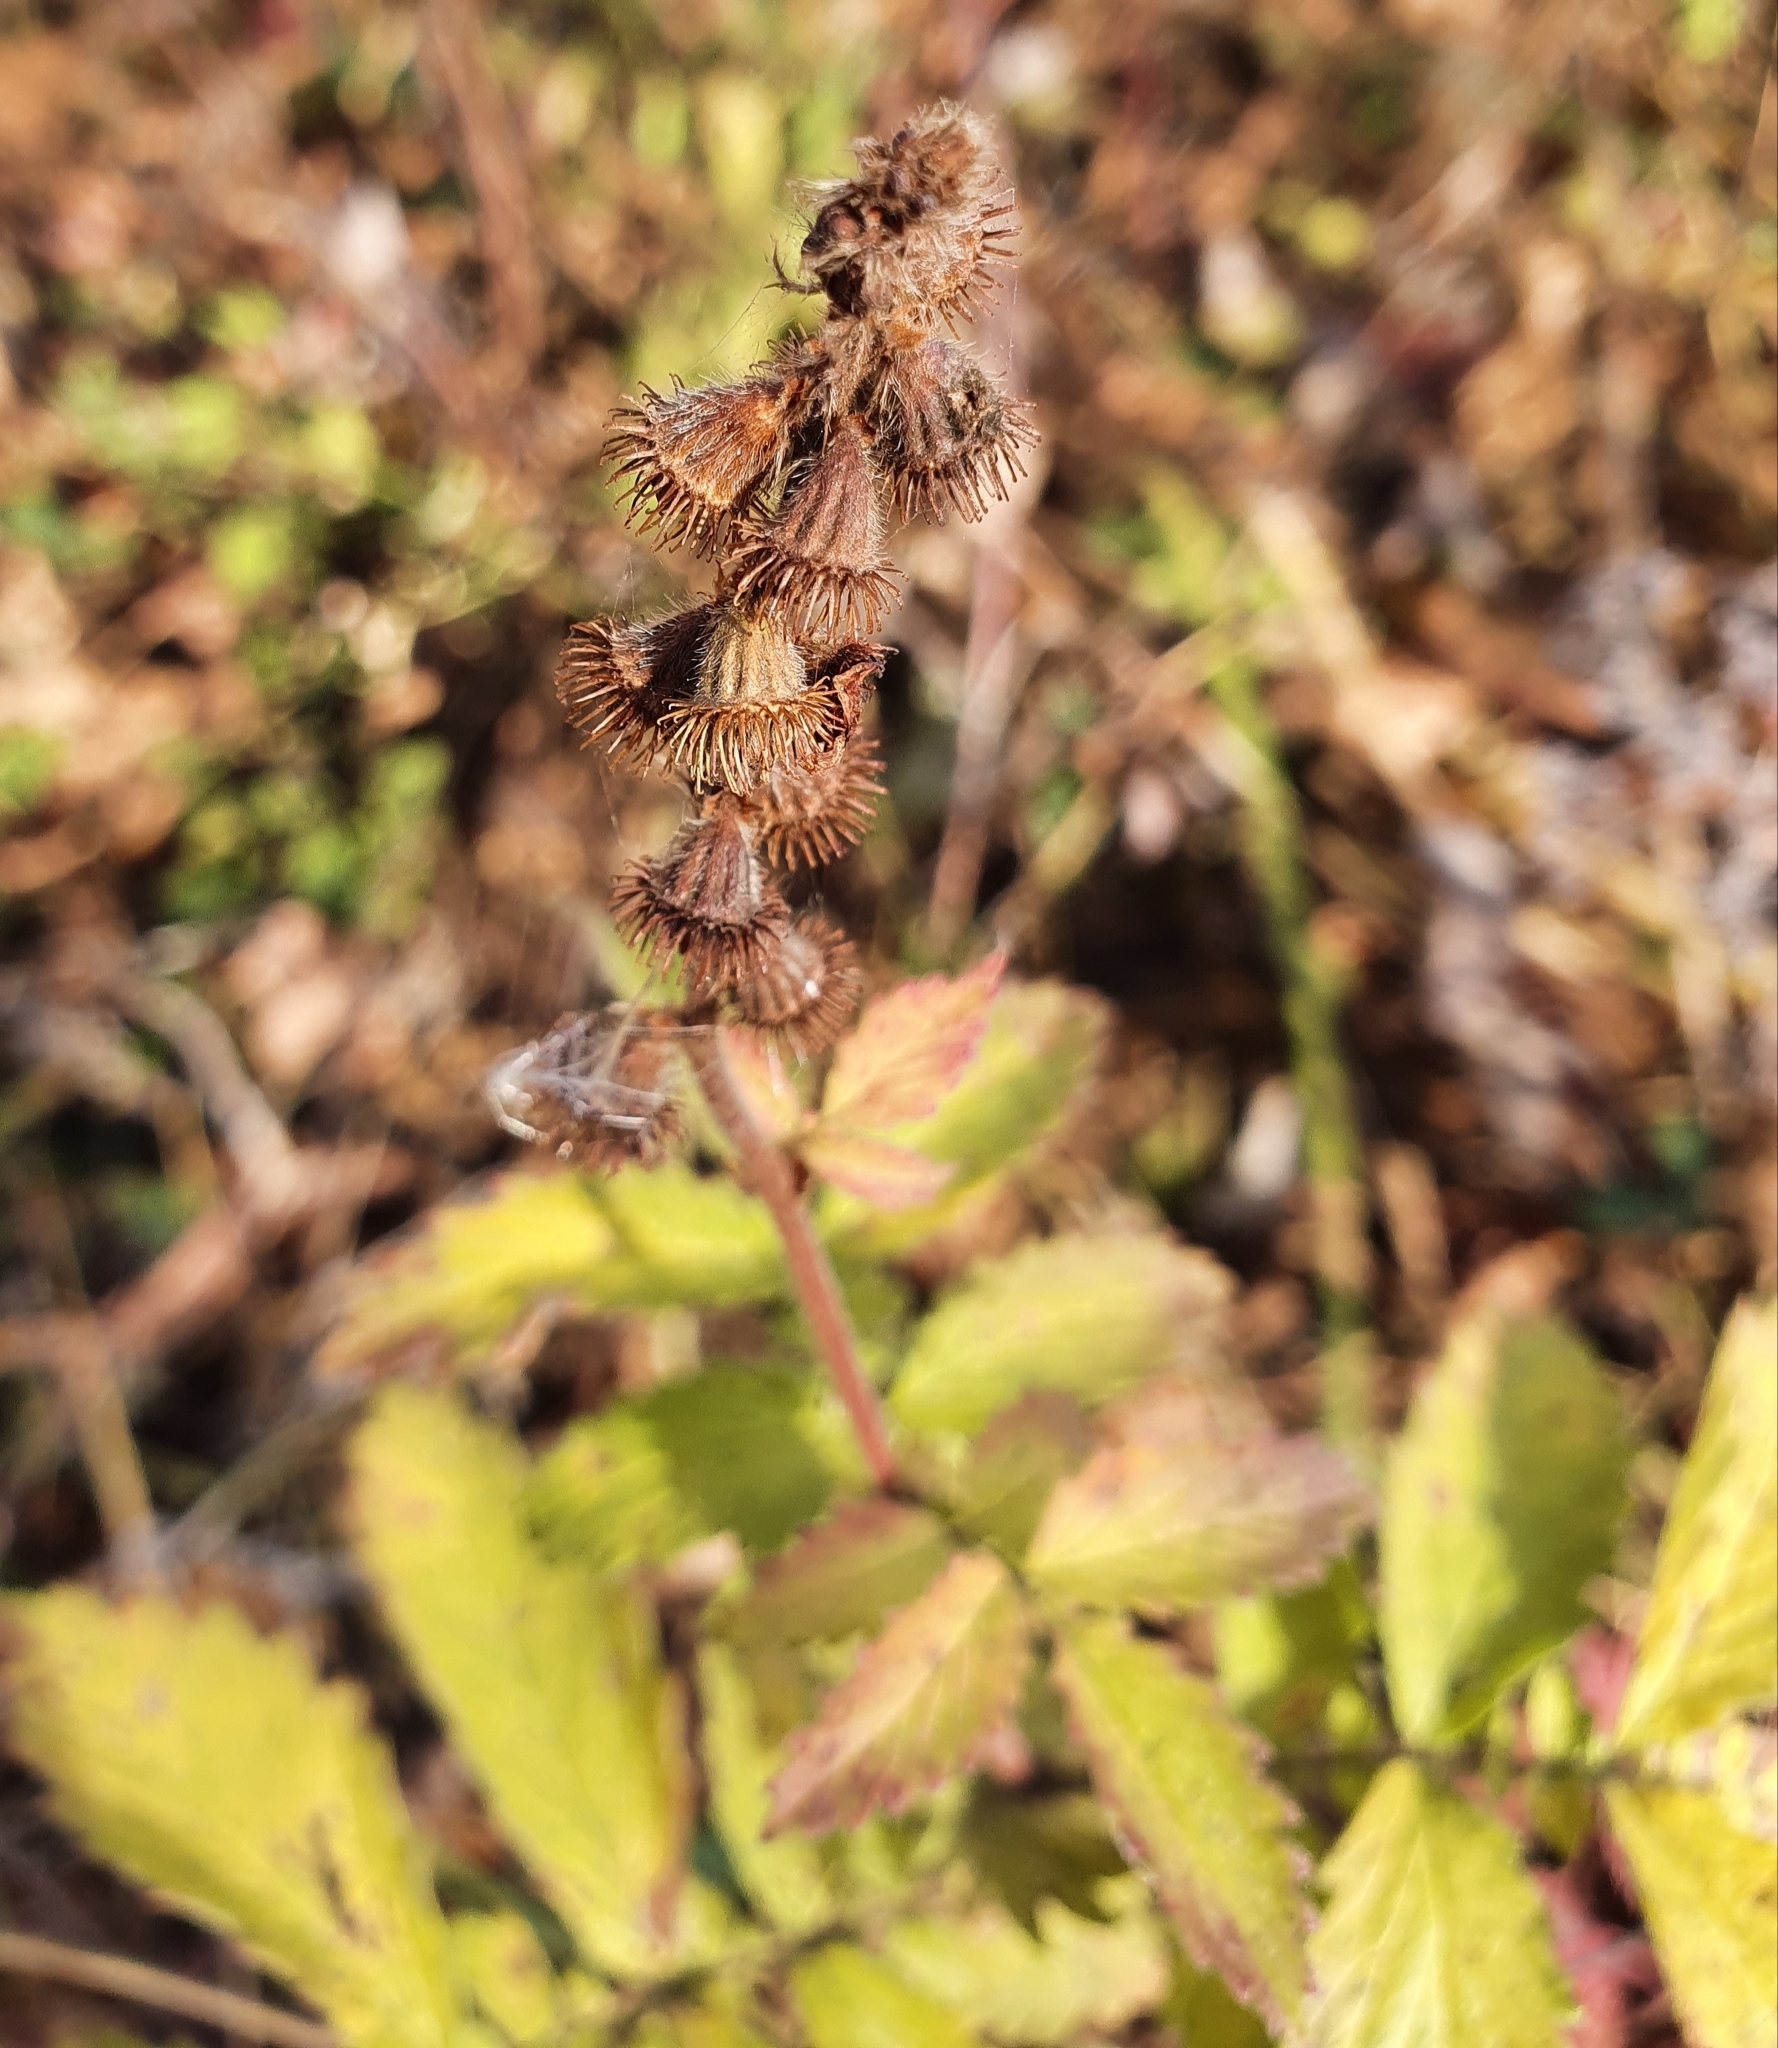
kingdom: Plantae
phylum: Tracheophyta
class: Magnoliopsida
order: Rosales
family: Rosaceae
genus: Agrimonia
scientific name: Agrimonia eupatoria
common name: Agrimony
